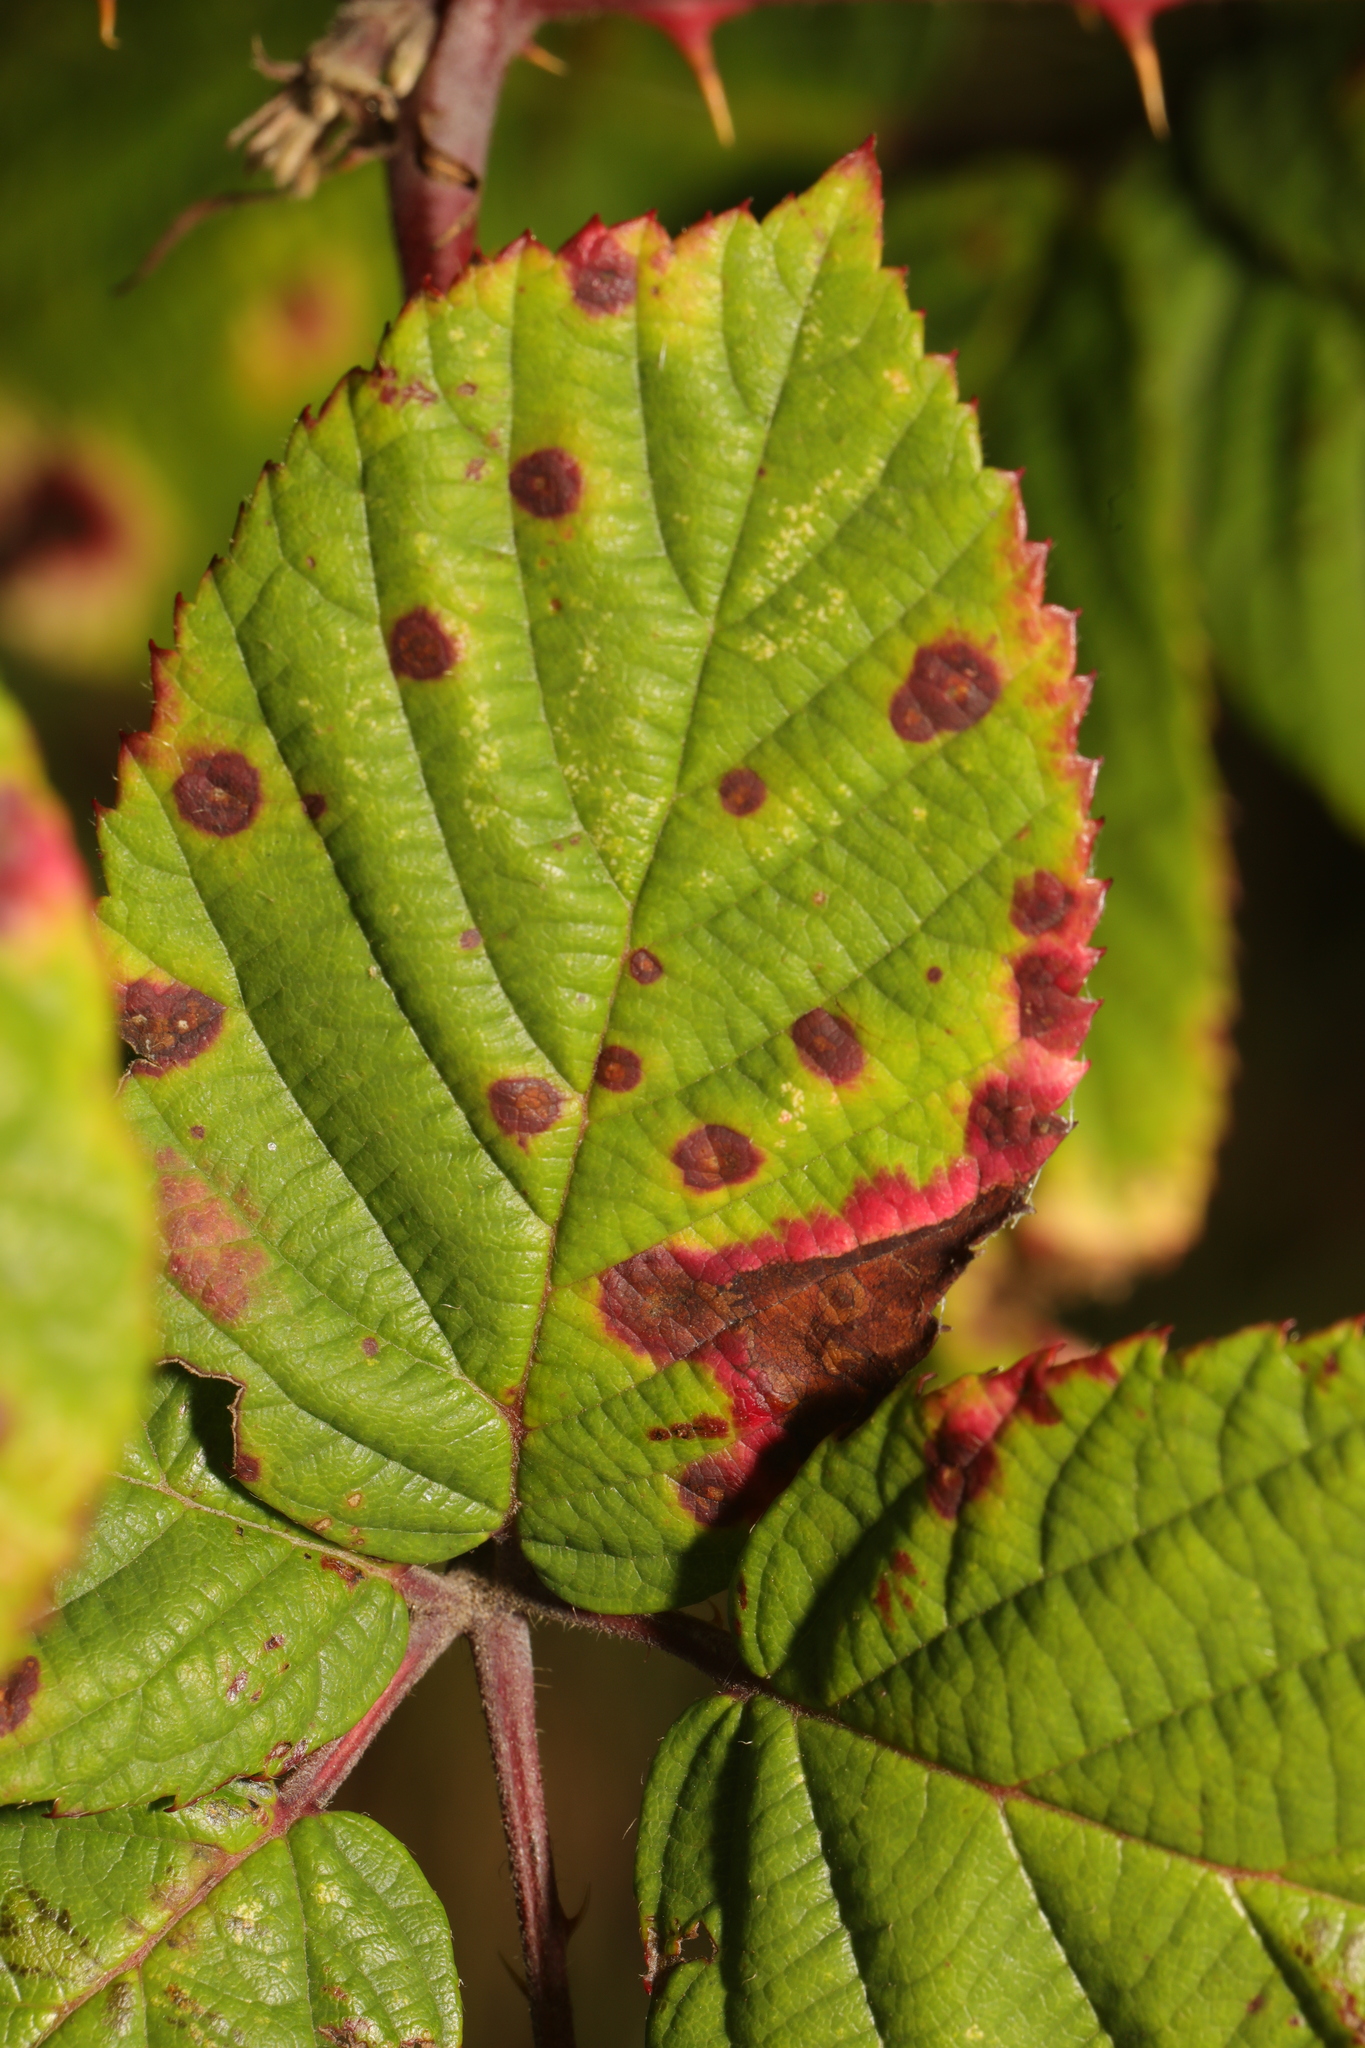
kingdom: Fungi
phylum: Basidiomycota
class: Pucciniomycetes
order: Pucciniales
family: Phragmidiaceae
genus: Phragmidium
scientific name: Phragmidium violaceum
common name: Violet bramble rust
